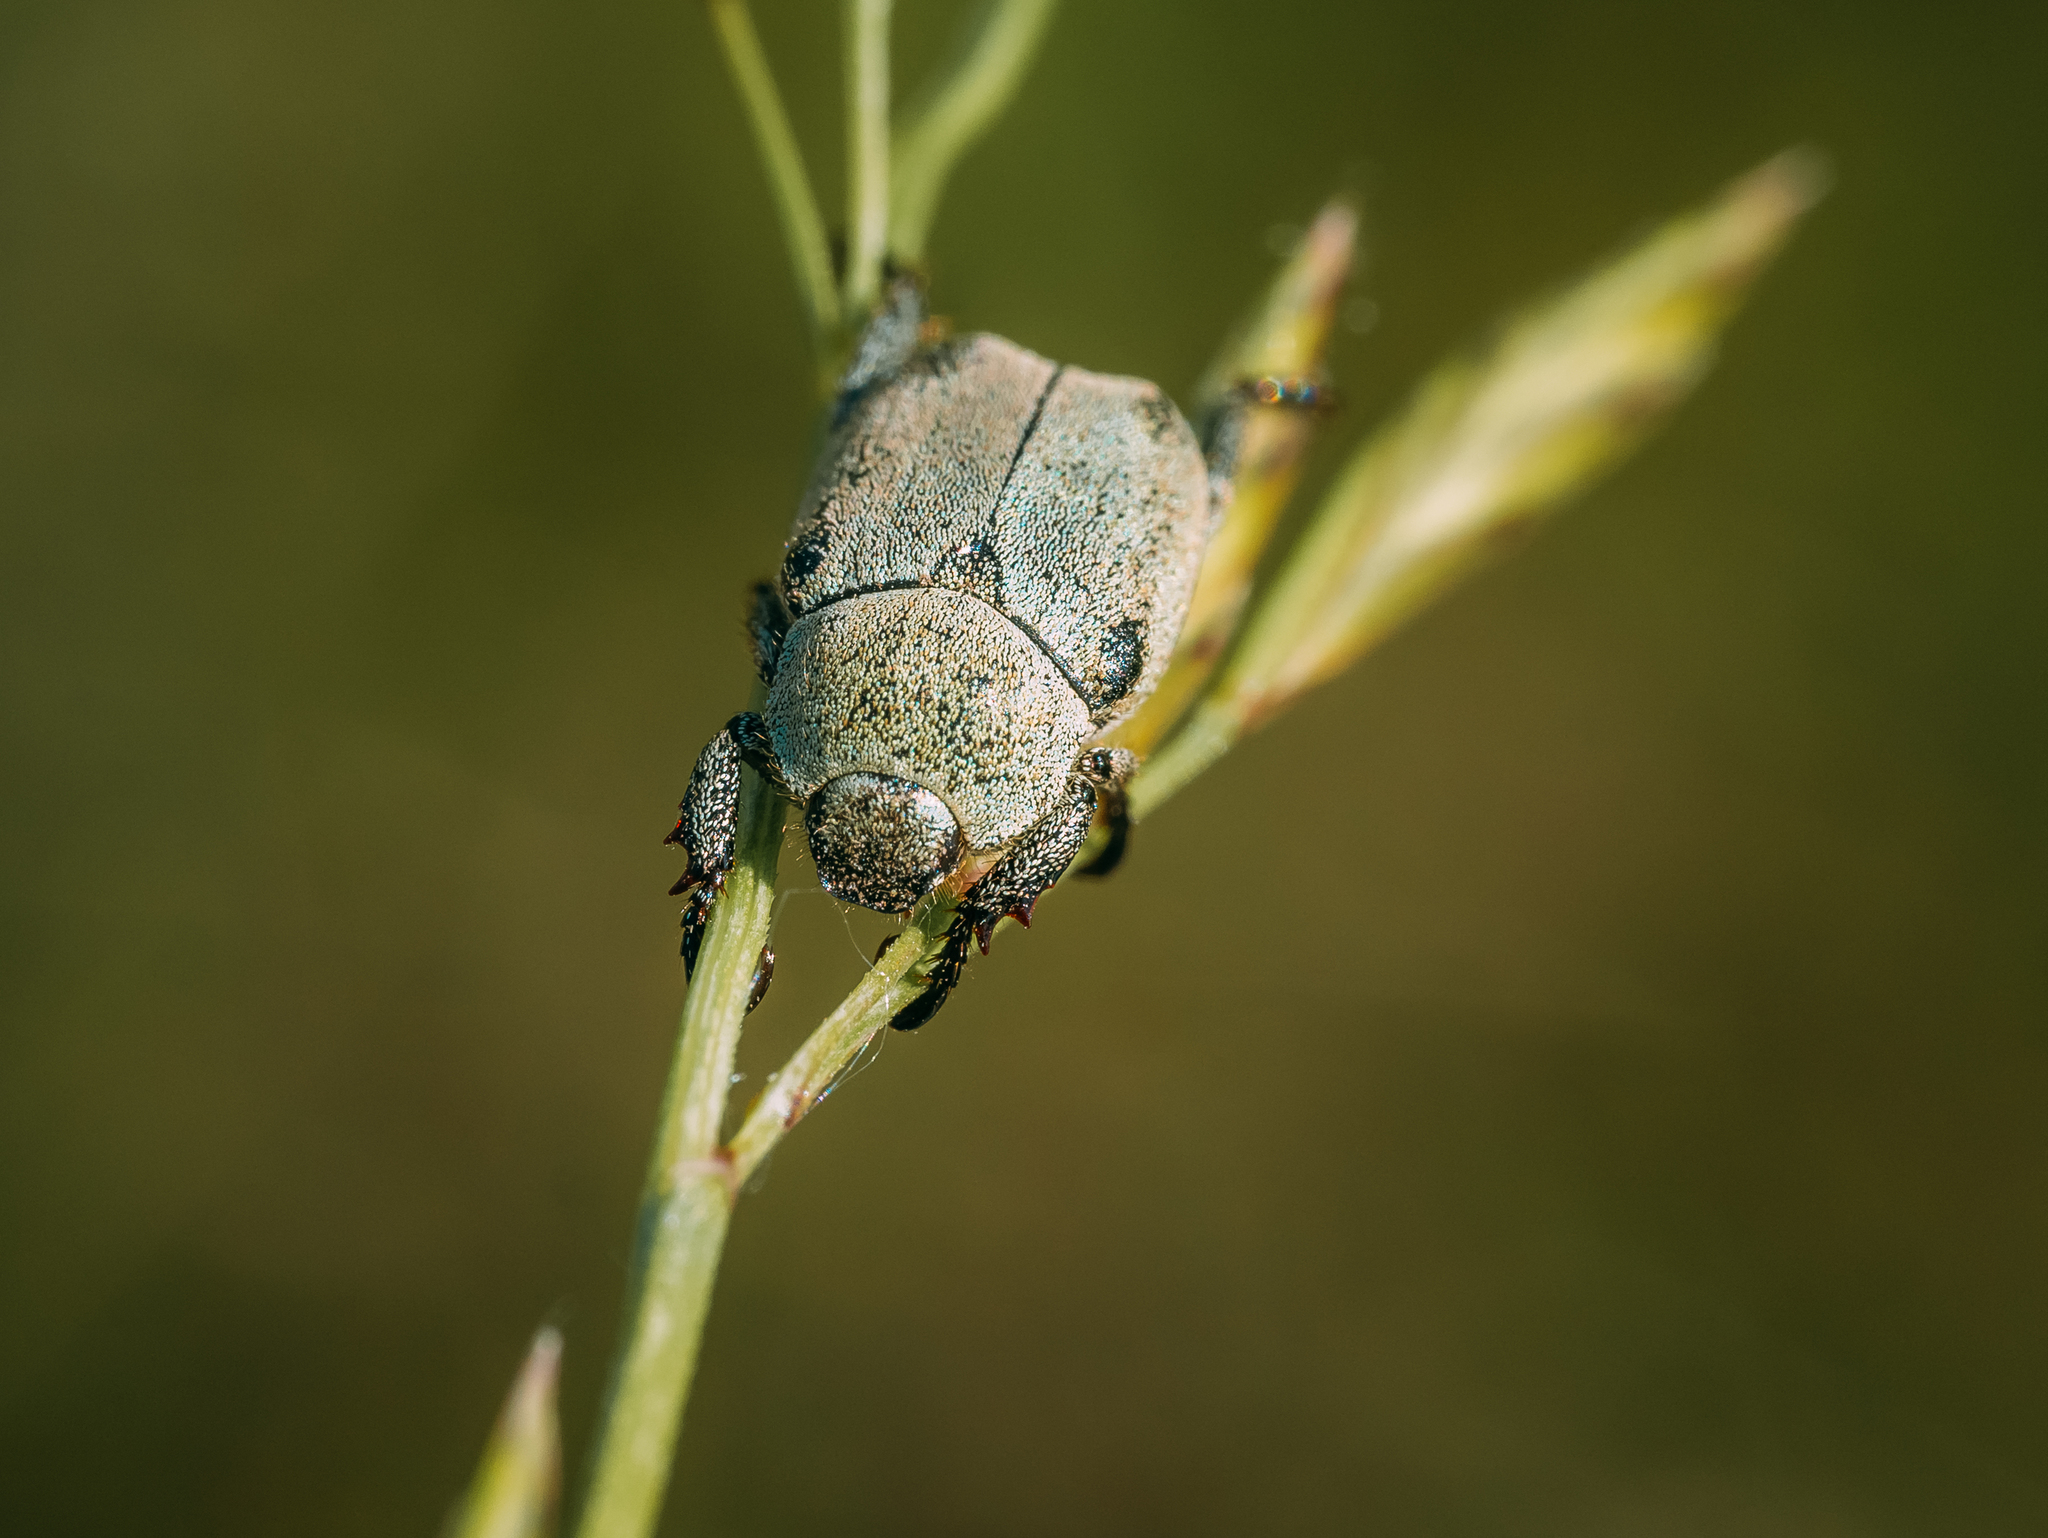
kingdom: Animalia
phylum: Arthropoda
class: Insecta
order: Coleoptera
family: Scarabaeidae
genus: Hoplia
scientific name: Hoplia parvula
